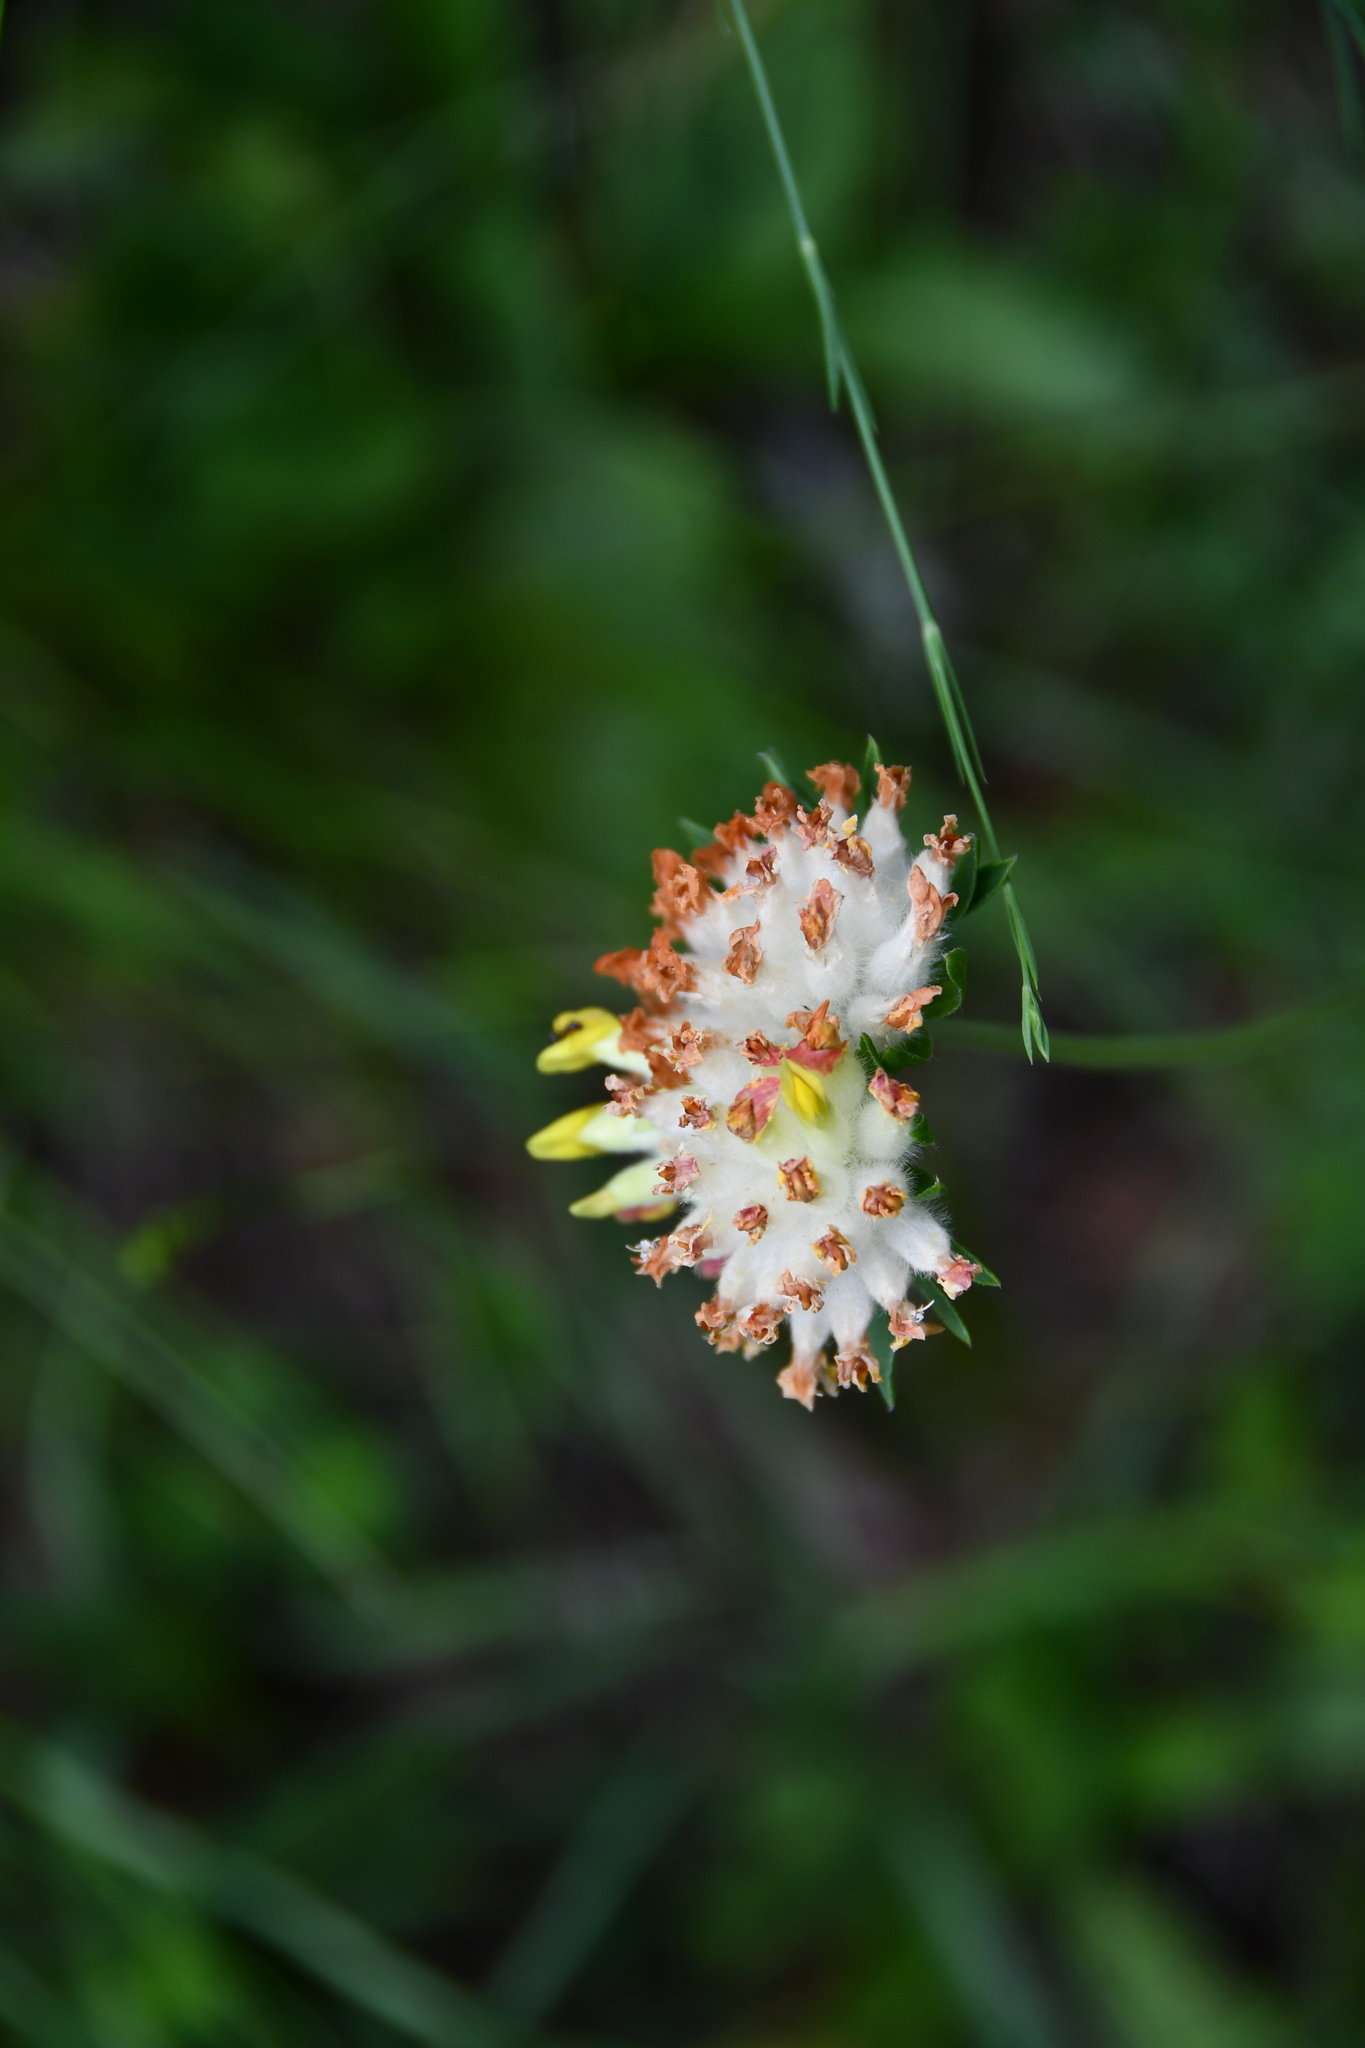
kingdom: Plantae
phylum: Tracheophyta
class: Magnoliopsida
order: Fabales
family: Fabaceae
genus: Anthyllis
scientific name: Anthyllis vulneraria
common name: Kidney vetch
